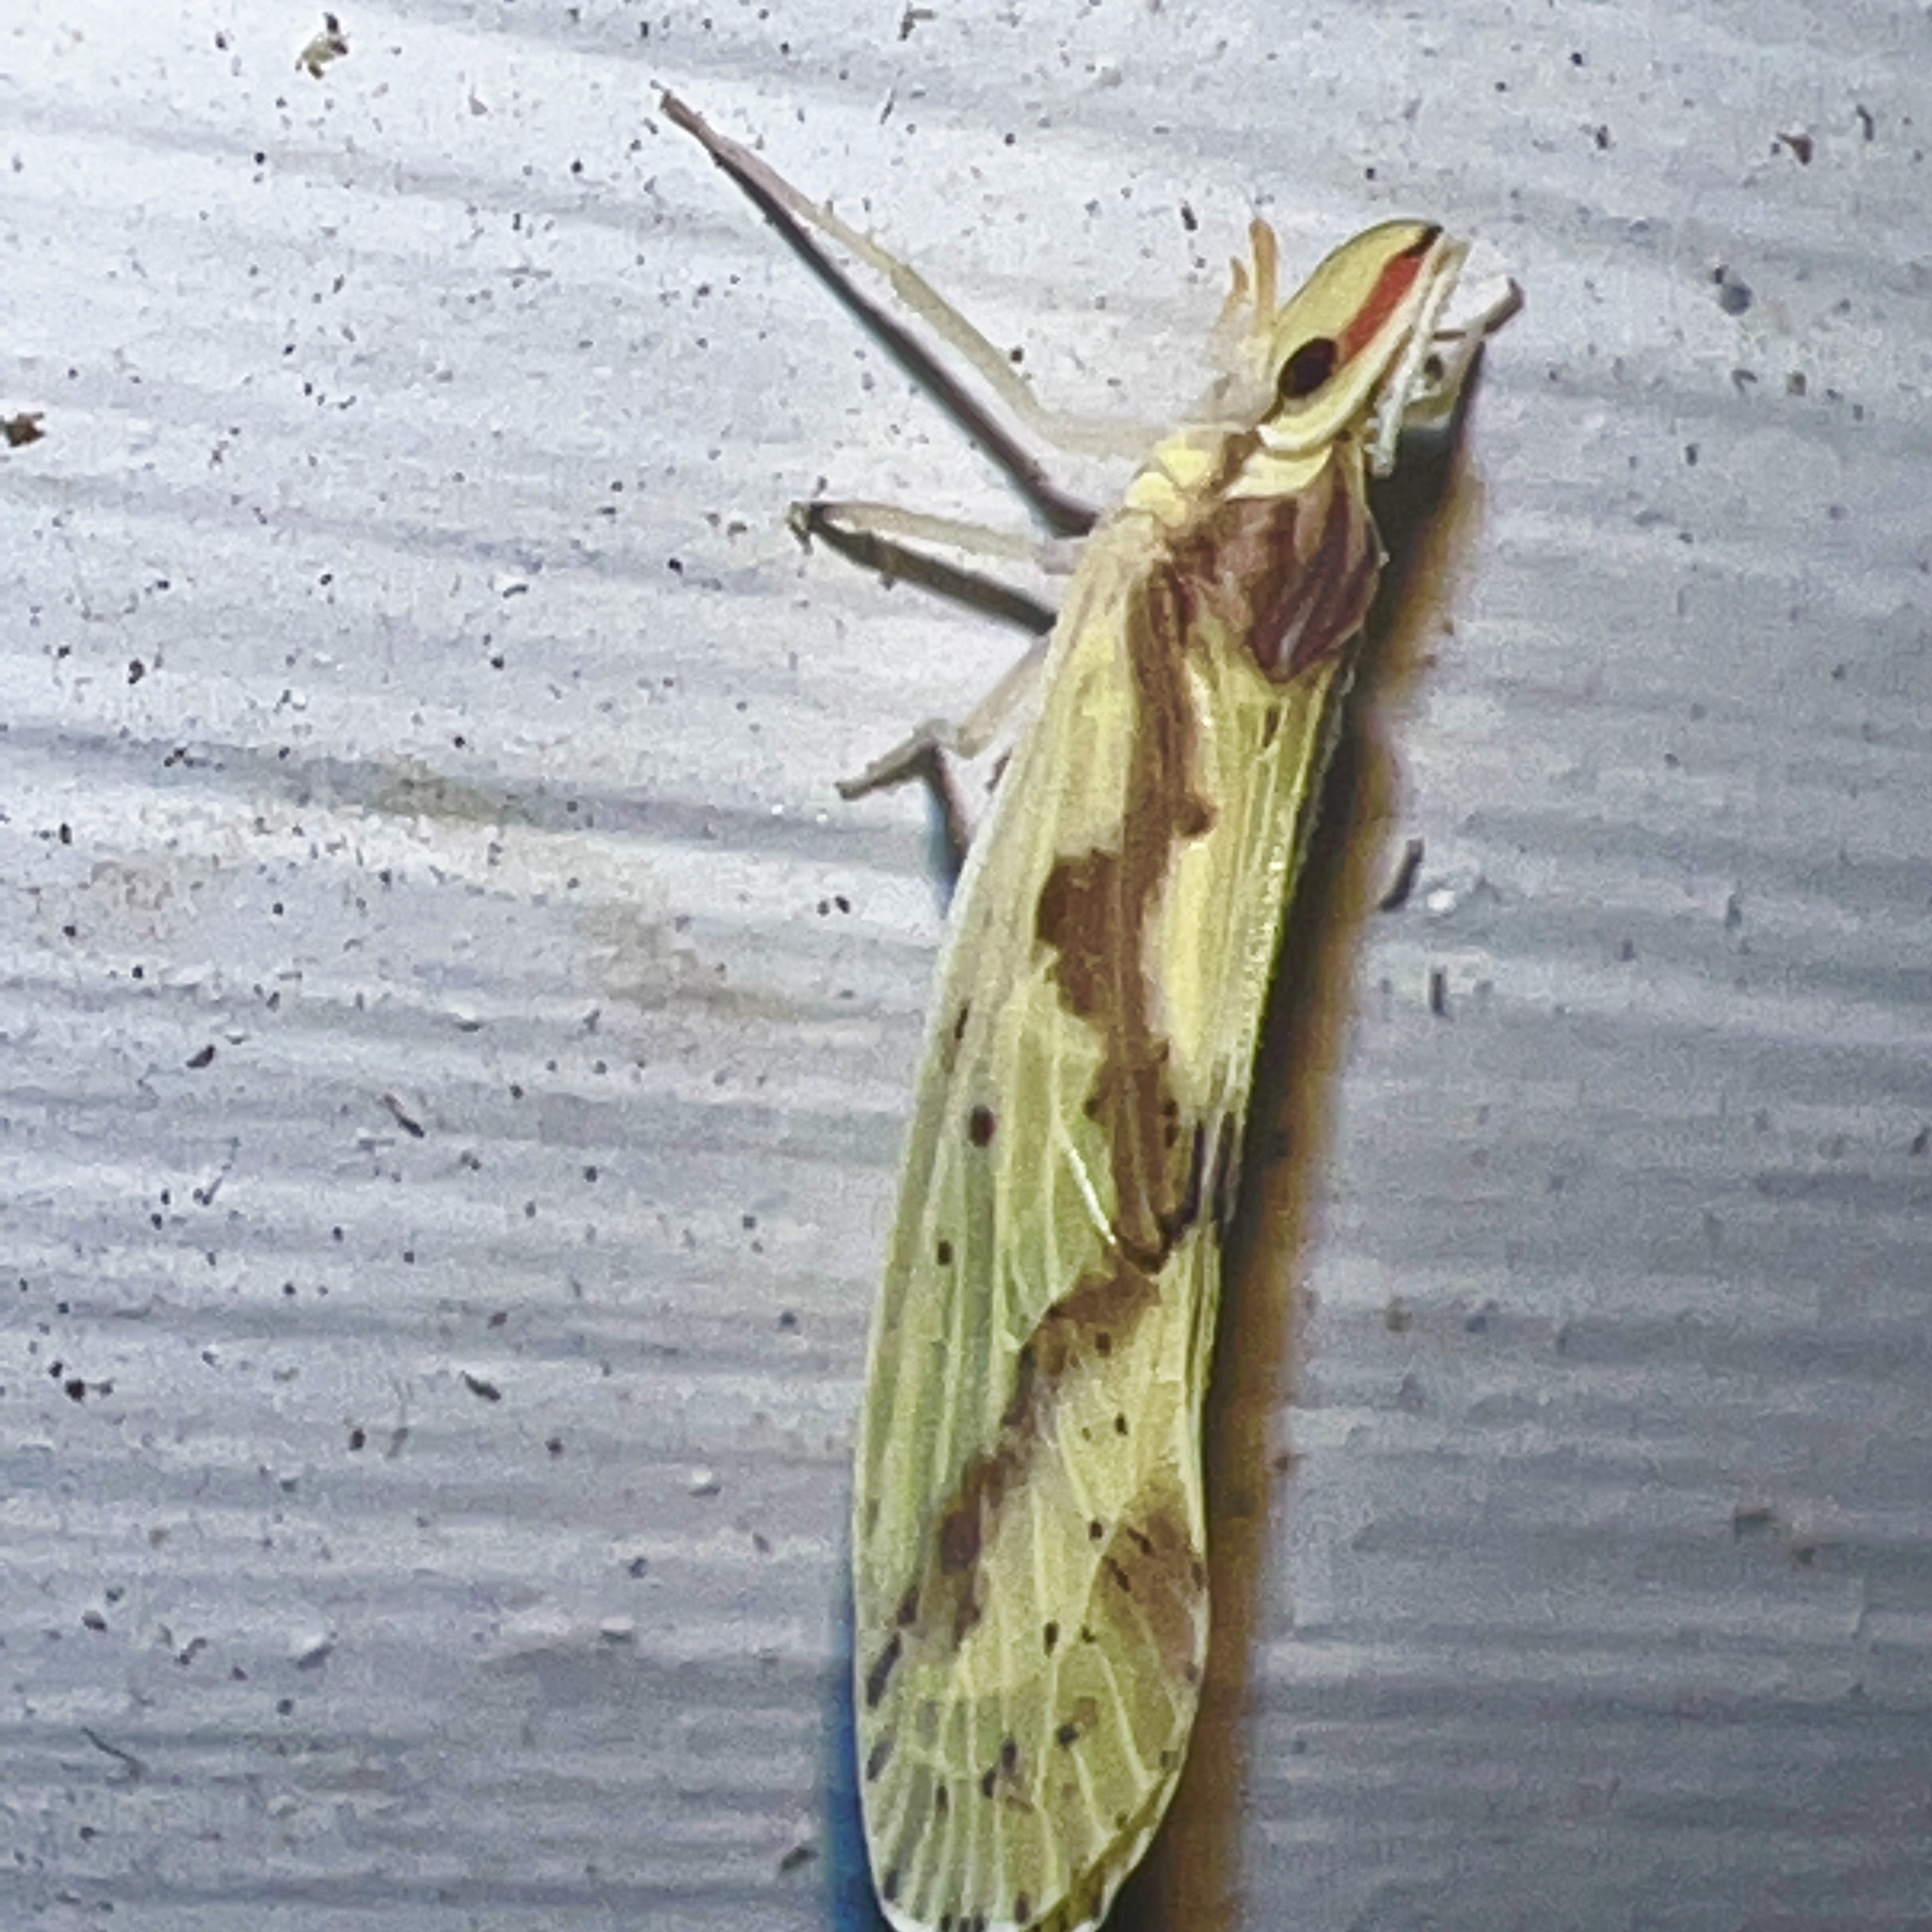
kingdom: Animalia
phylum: Arthropoda
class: Insecta
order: Hemiptera
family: Derbidae
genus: Otiocerus
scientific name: Otiocerus wolfii
